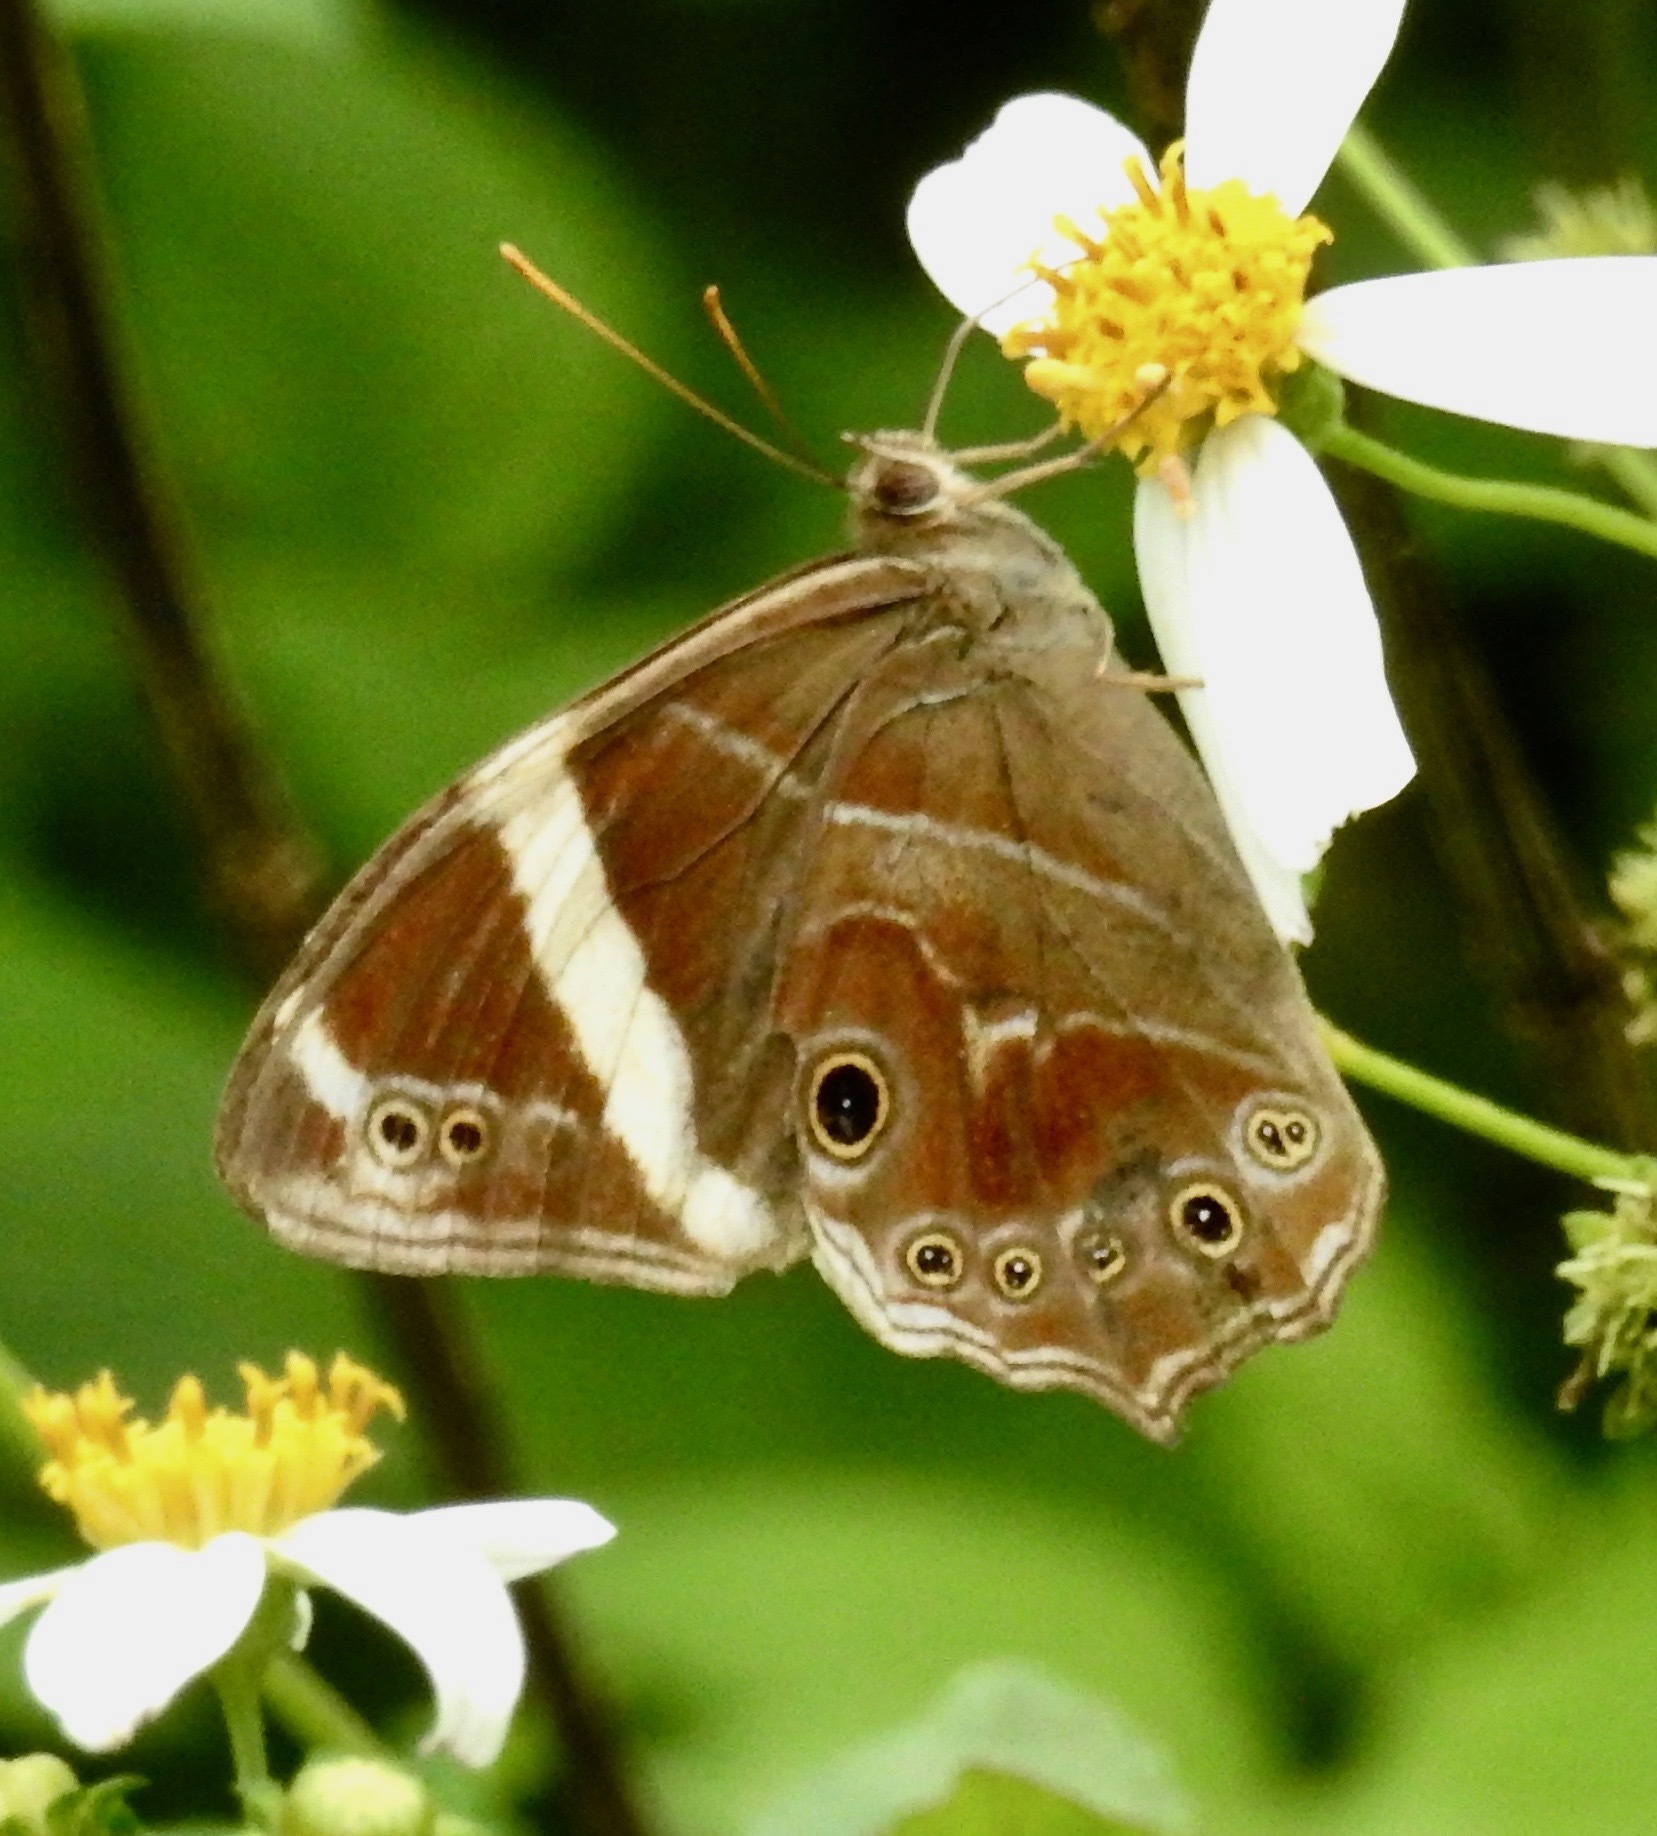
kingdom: Animalia
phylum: Arthropoda
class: Insecta
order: Lepidoptera
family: Nymphalidae
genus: Lethe
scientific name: Lethe confusa
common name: Banded treebrown
